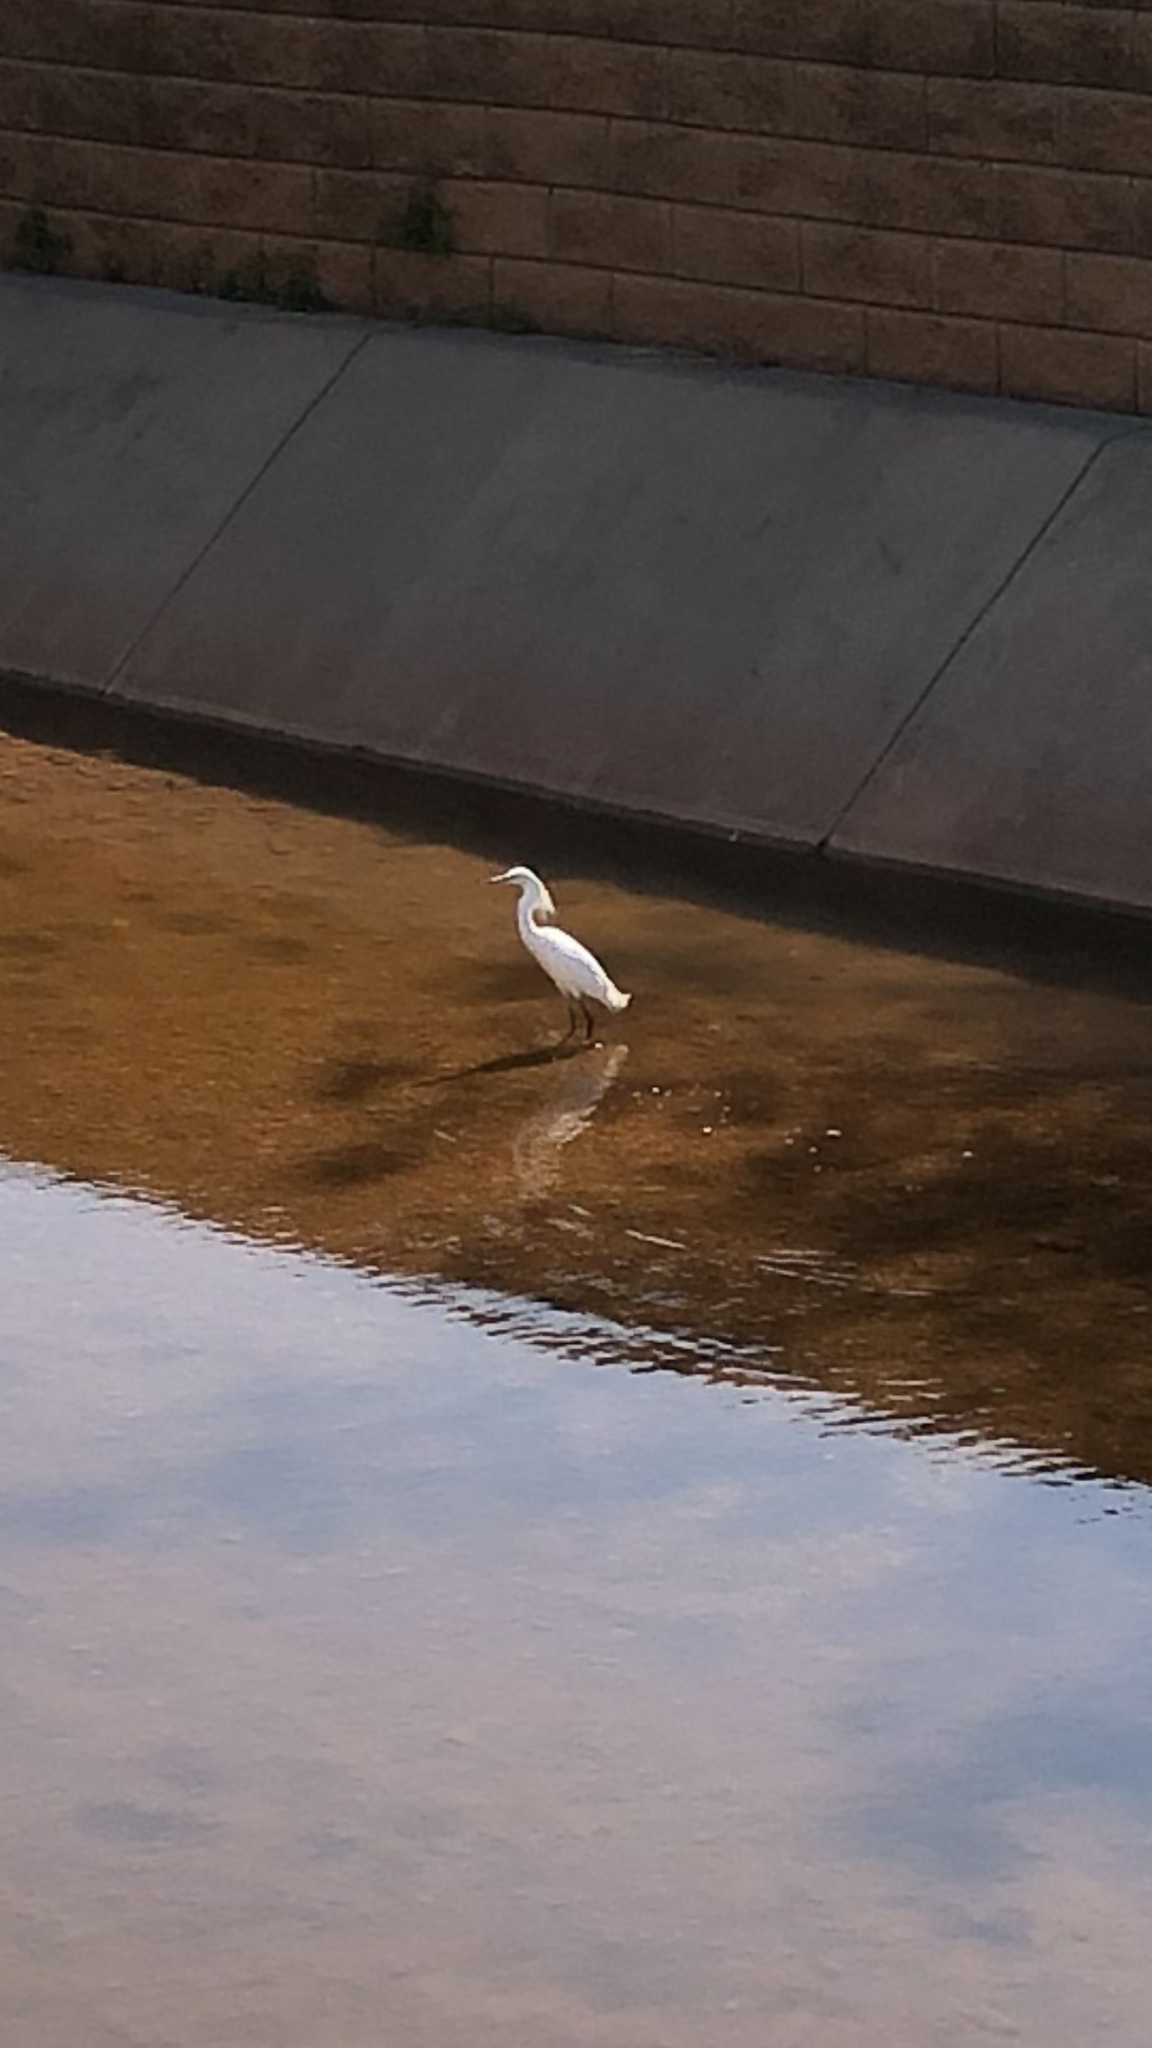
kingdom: Animalia
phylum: Chordata
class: Aves
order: Pelecaniformes
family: Ardeidae
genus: Egretta
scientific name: Egretta thula
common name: Snowy egret
